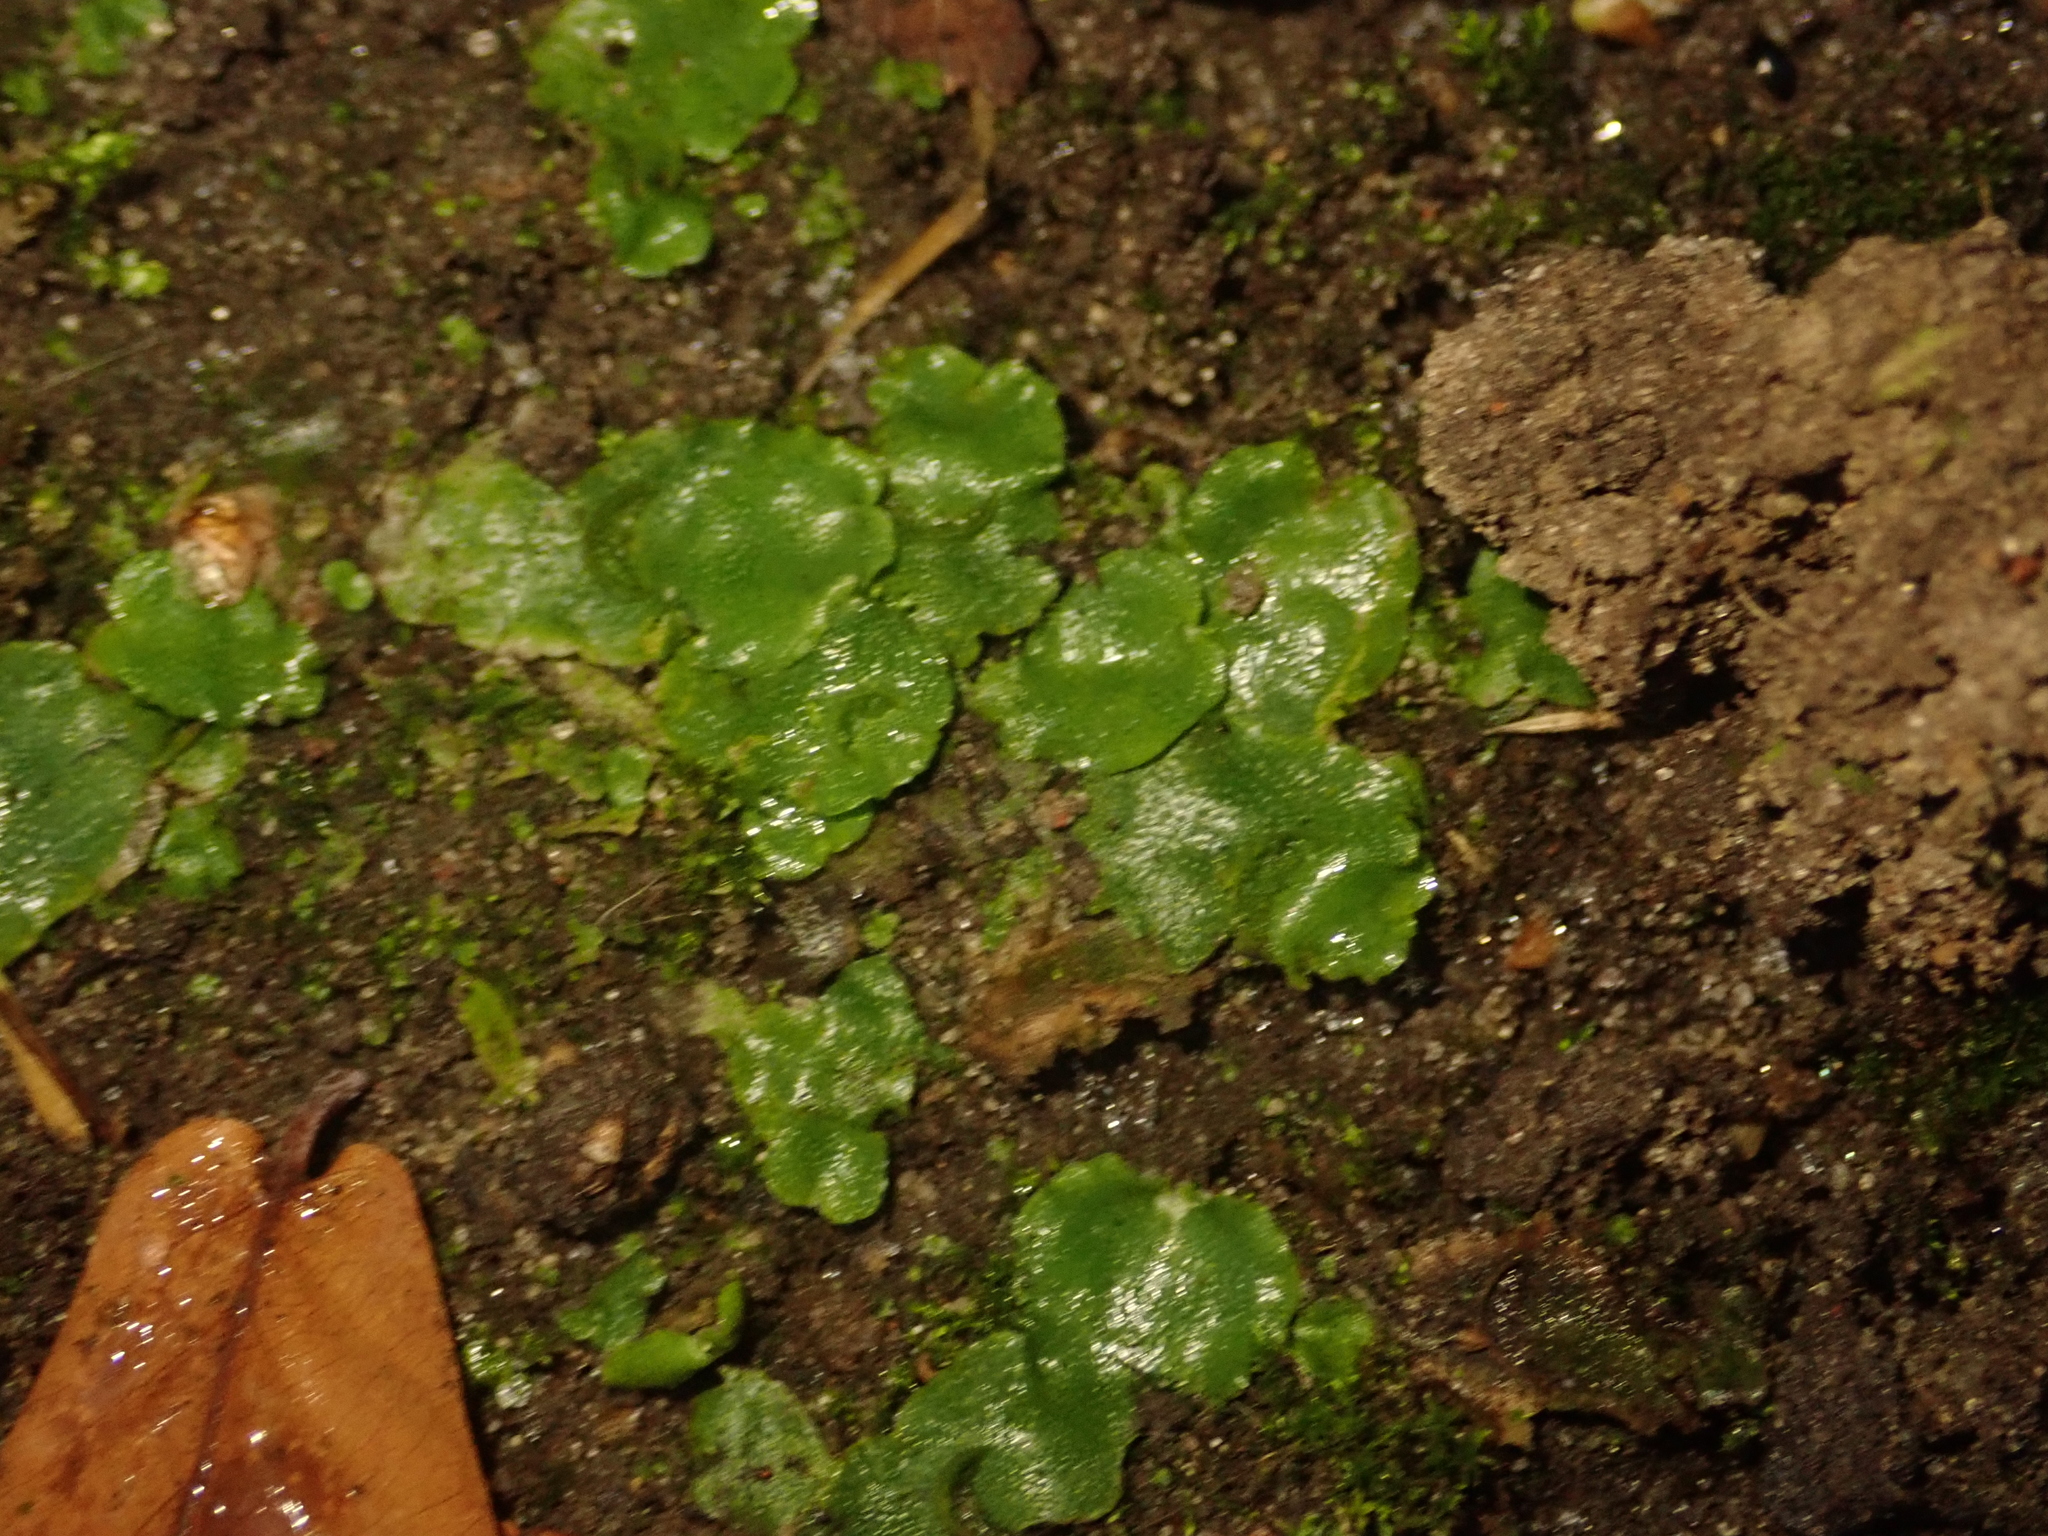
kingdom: Plantae
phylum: Marchantiophyta
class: Marchantiopsida
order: Lunulariales
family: Lunulariaceae
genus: Lunularia
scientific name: Lunularia cruciata
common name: Crescent-cup liverwort
